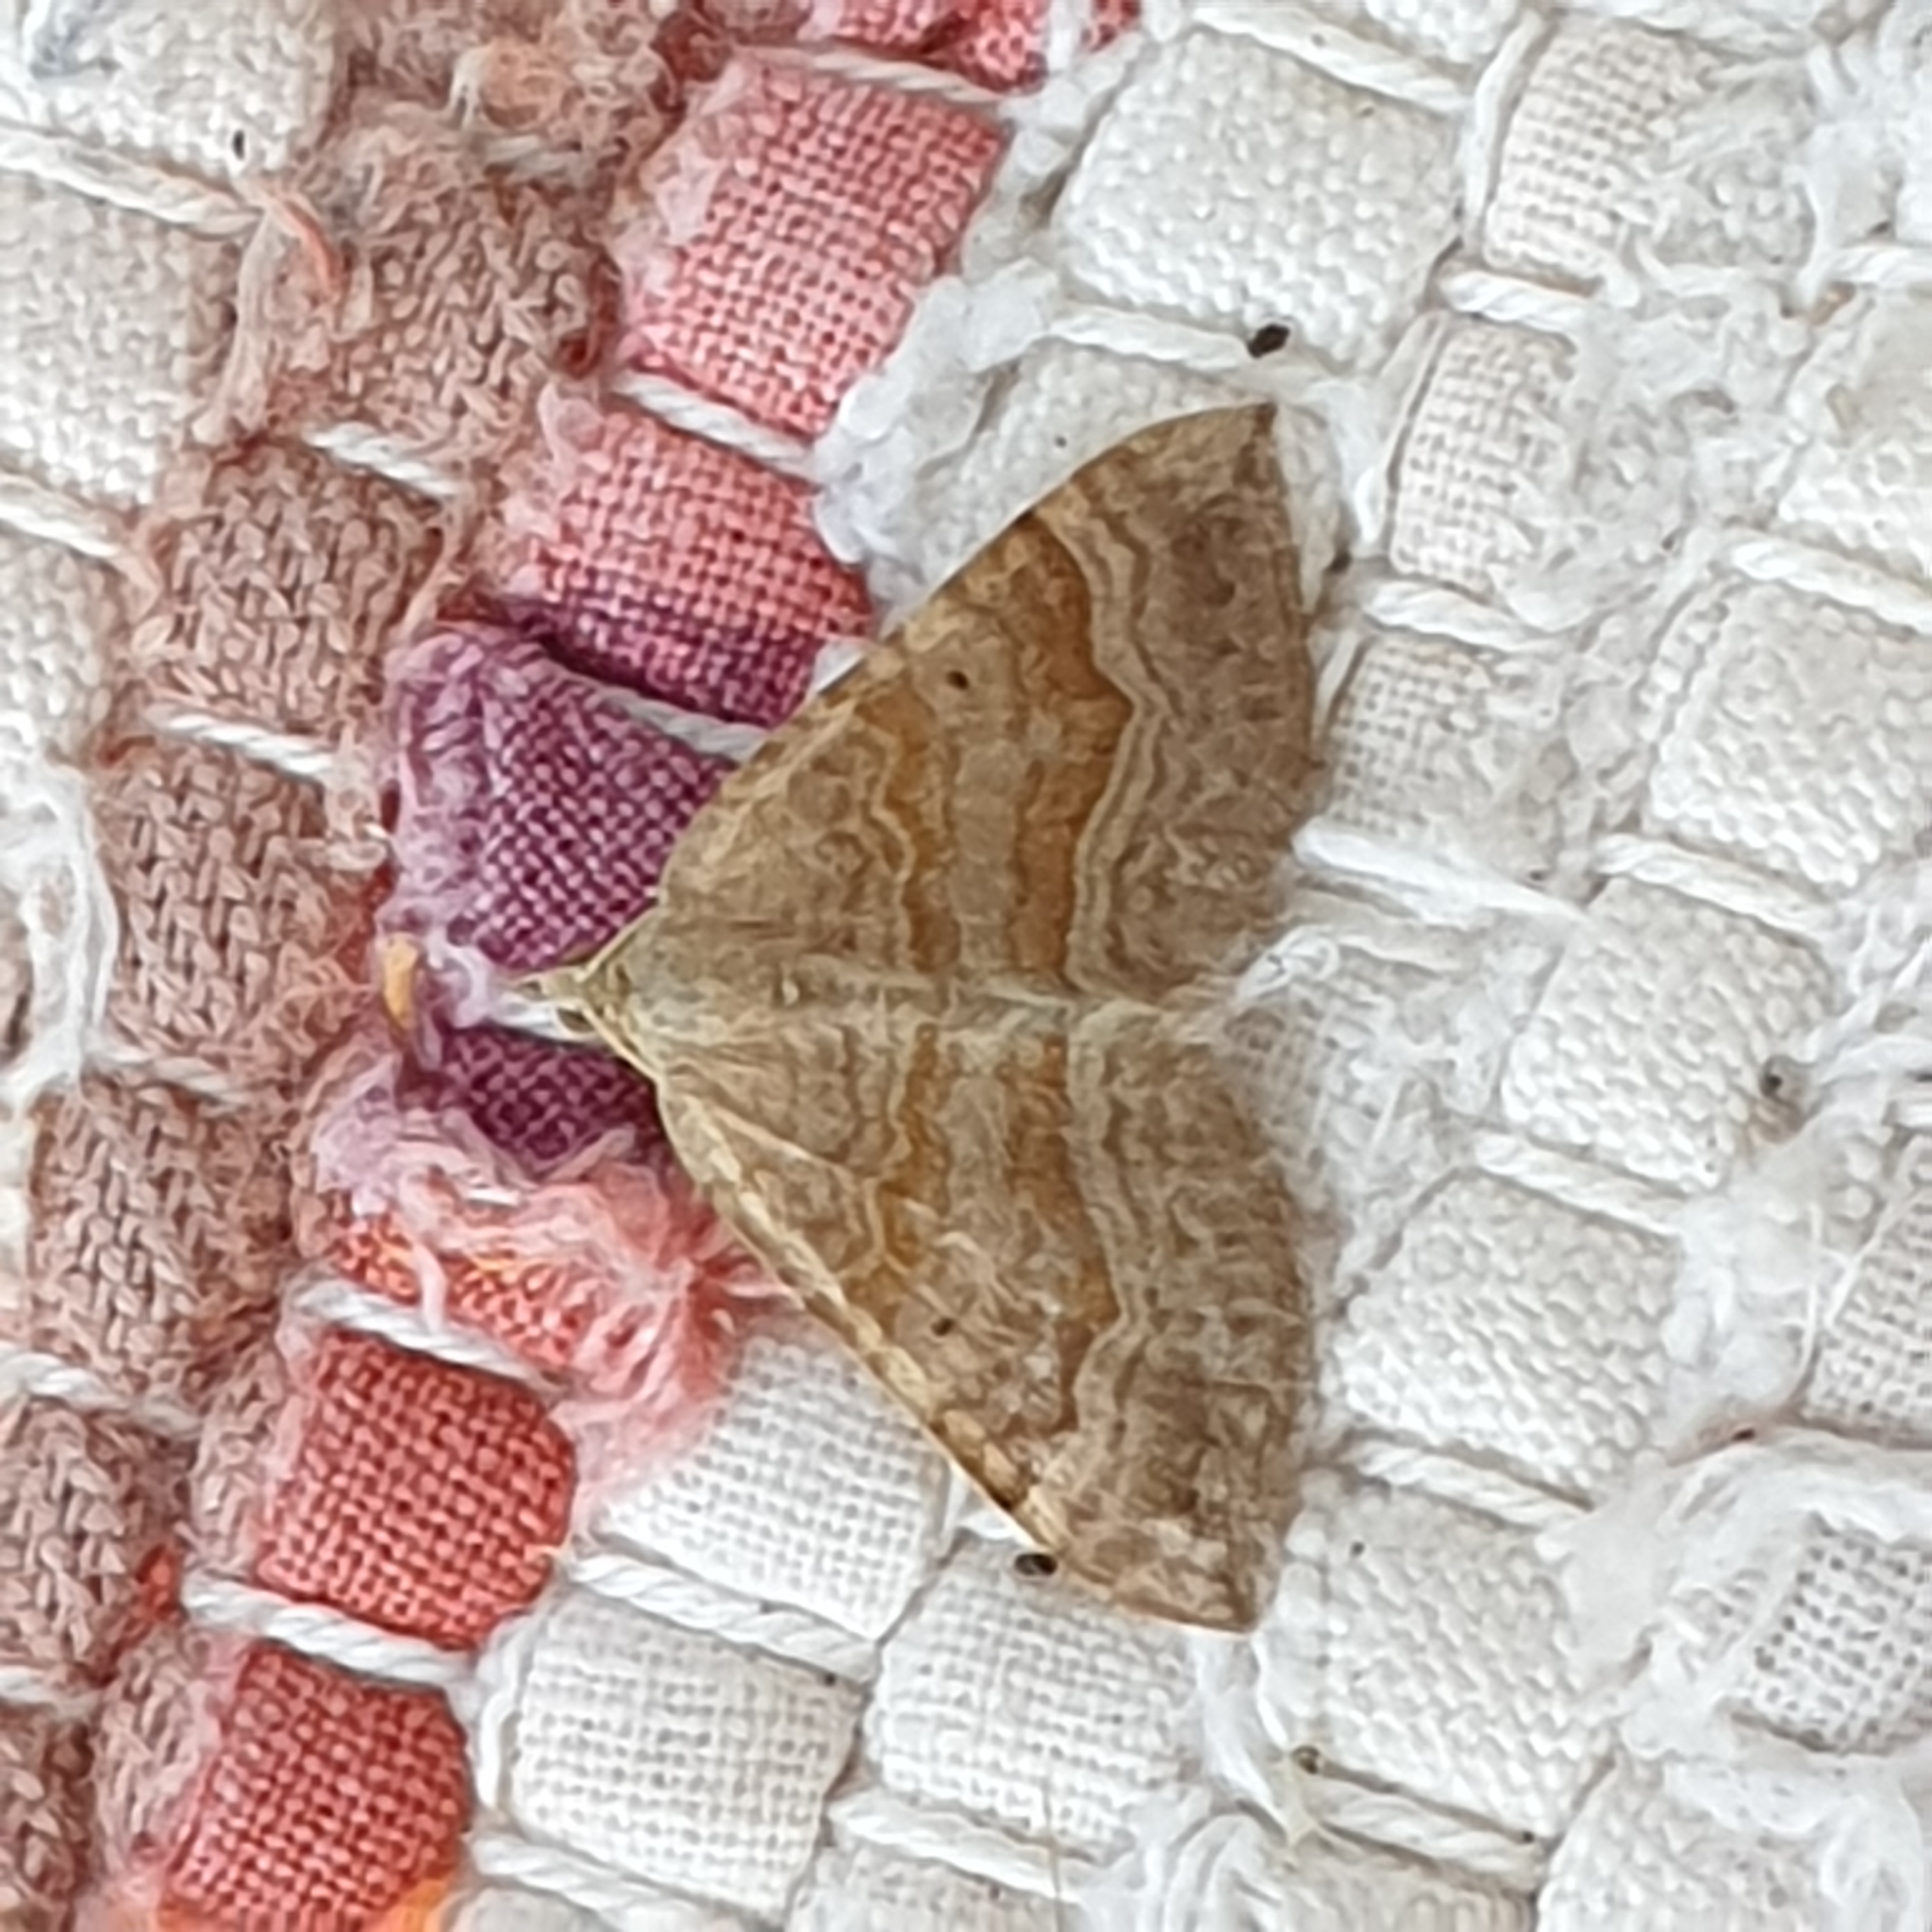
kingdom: Animalia
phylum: Arthropoda
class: Insecta
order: Lepidoptera
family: Geometridae
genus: Scotopteryx
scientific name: Scotopteryx chenopodiata
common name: Shaded broad-bar
